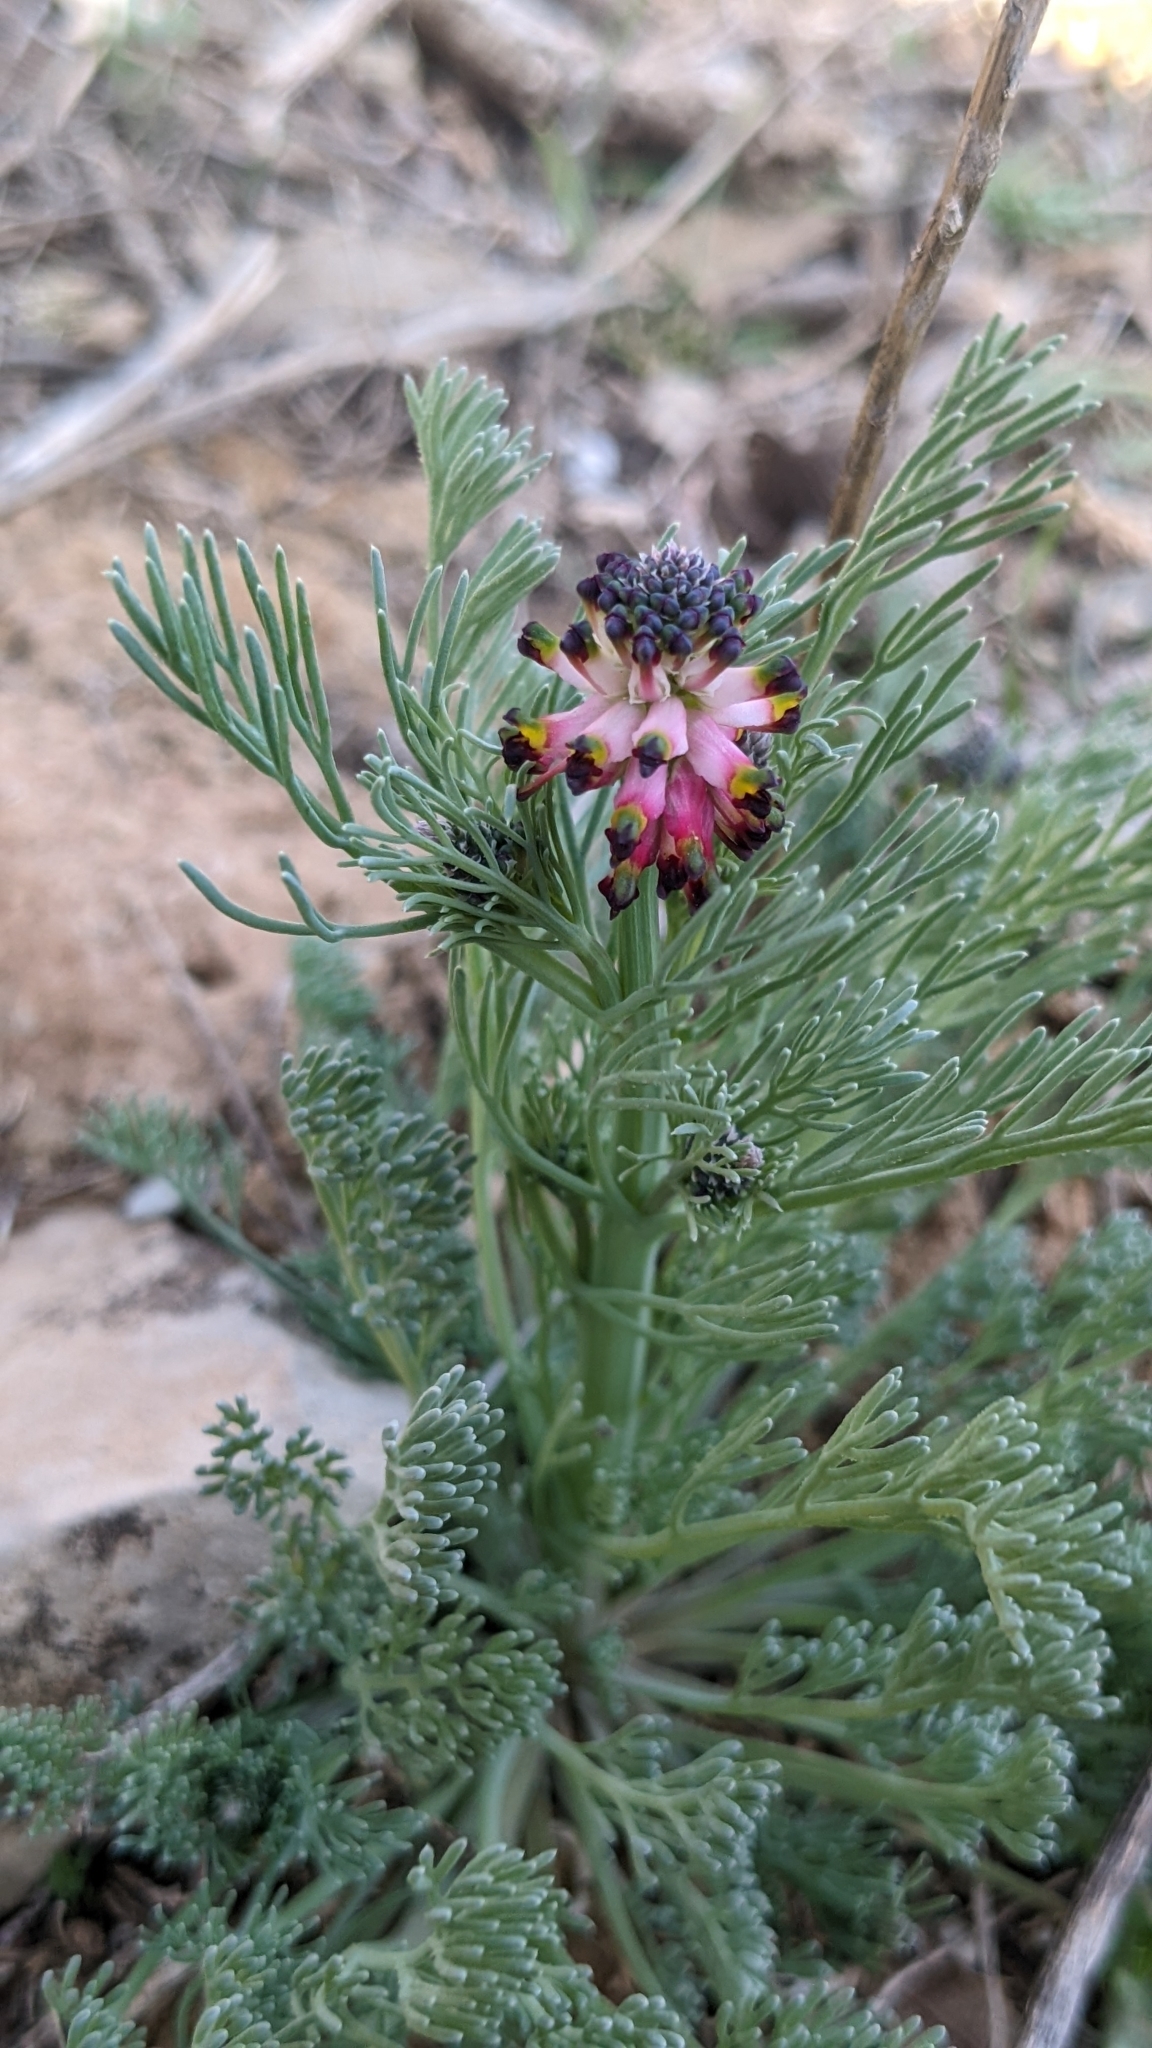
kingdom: Plantae
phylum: Tracheophyta
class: Magnoliopsida
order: Ranunculales
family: Papaveraceae
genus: Platycapnos
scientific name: Platycapnos spicata
